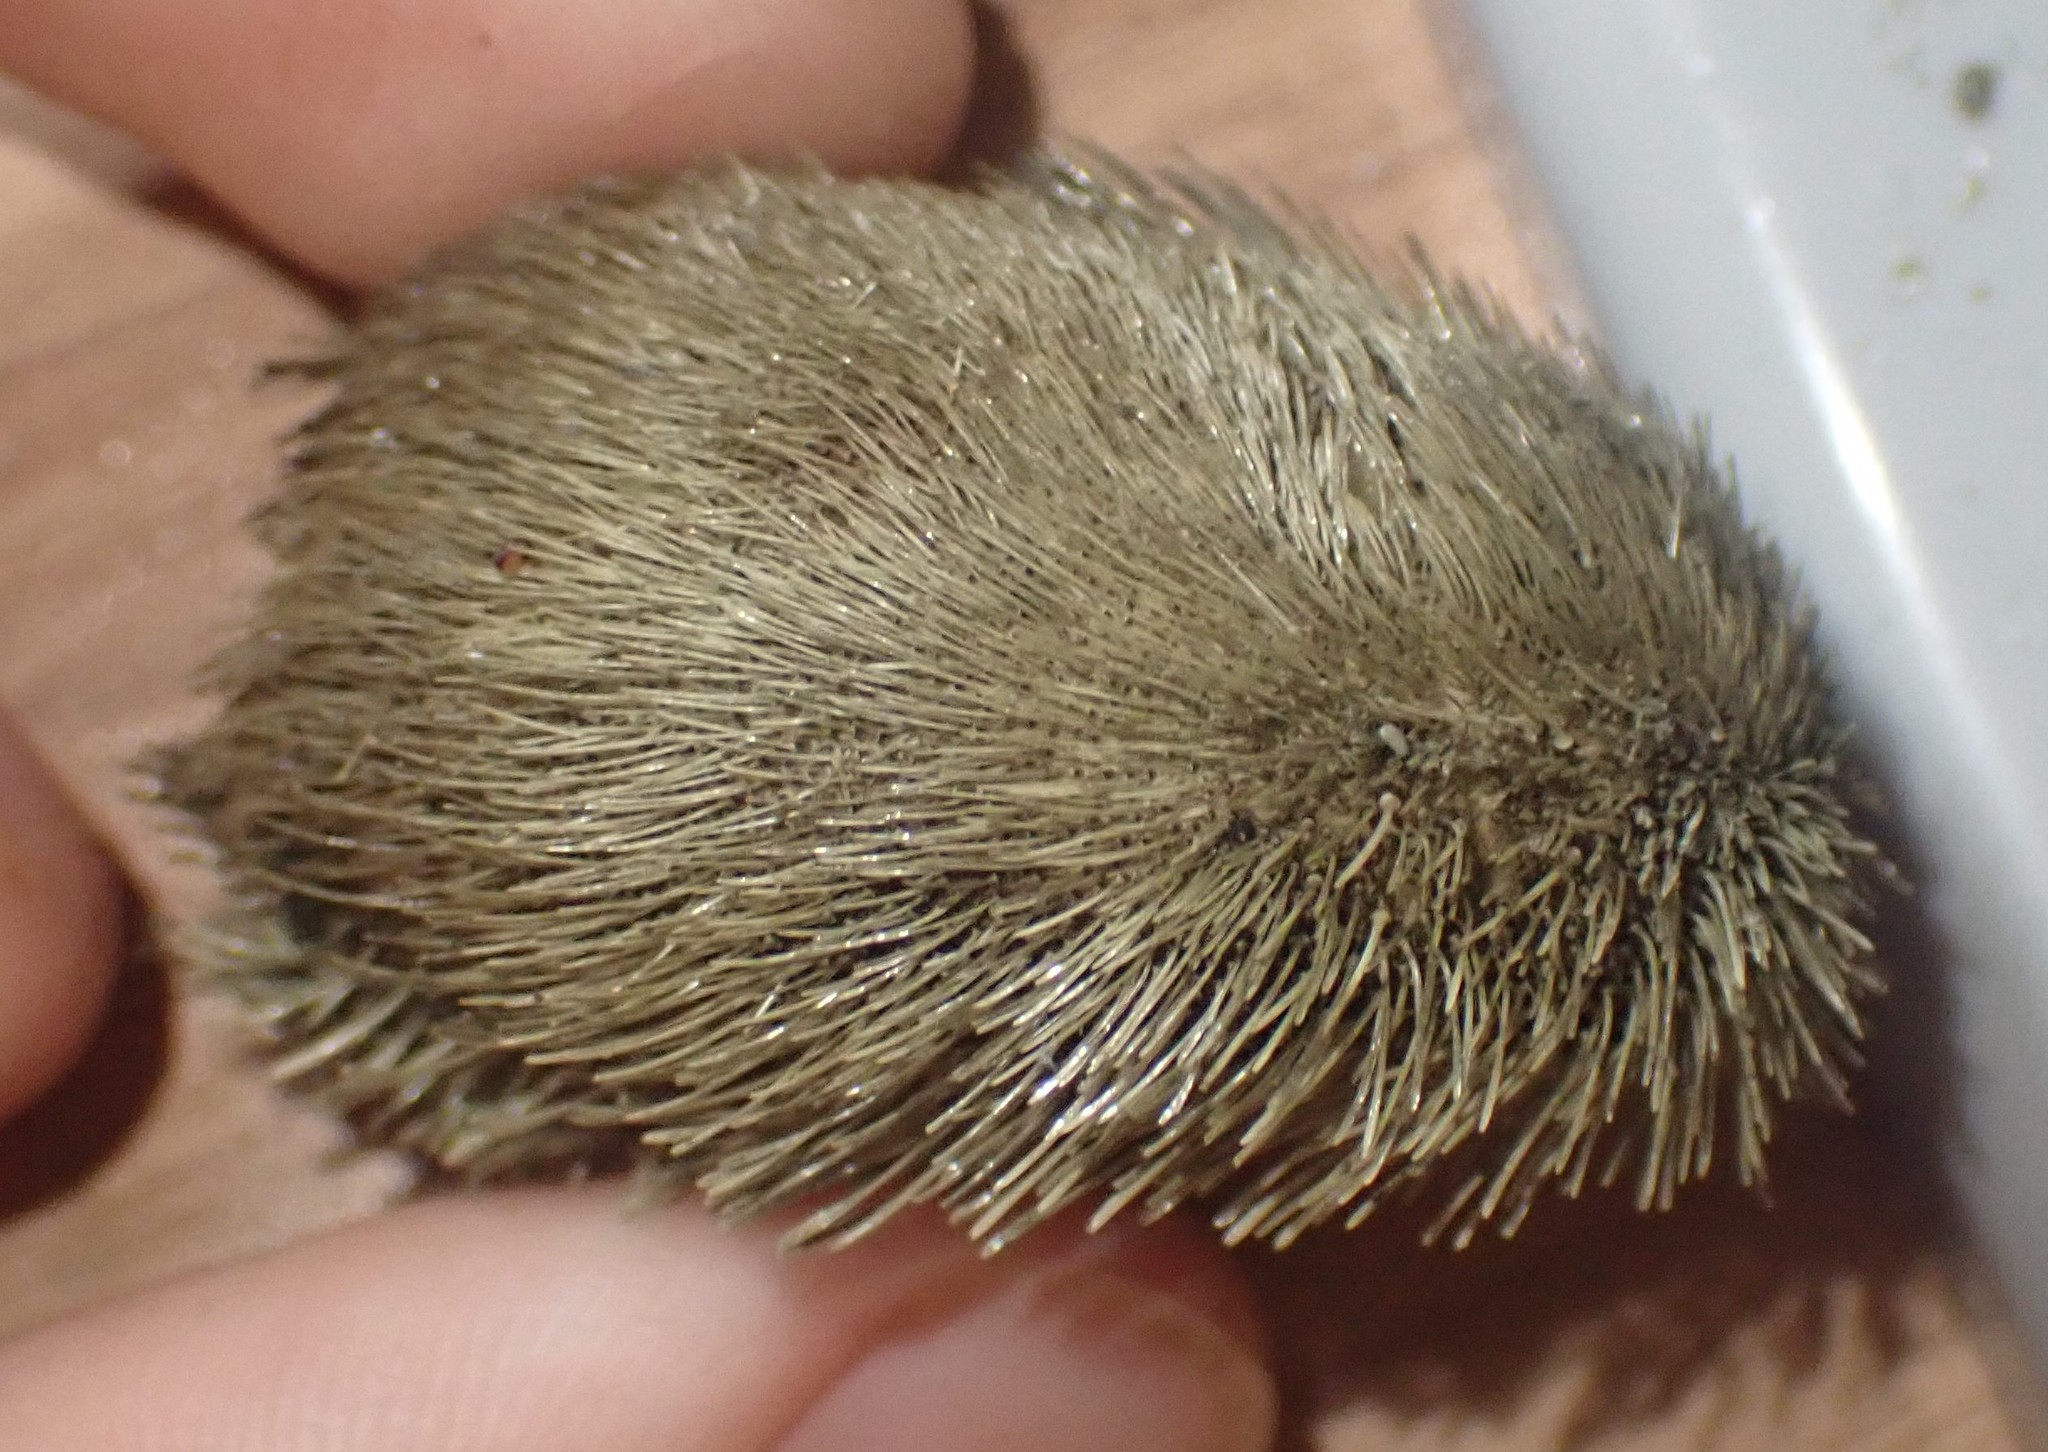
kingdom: Animalia
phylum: Echinodermata
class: Echinoidea
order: Spatangoida
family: Loveniidae
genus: Echinocardium
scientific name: Echinocardium cordatum
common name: Heart-urchin
